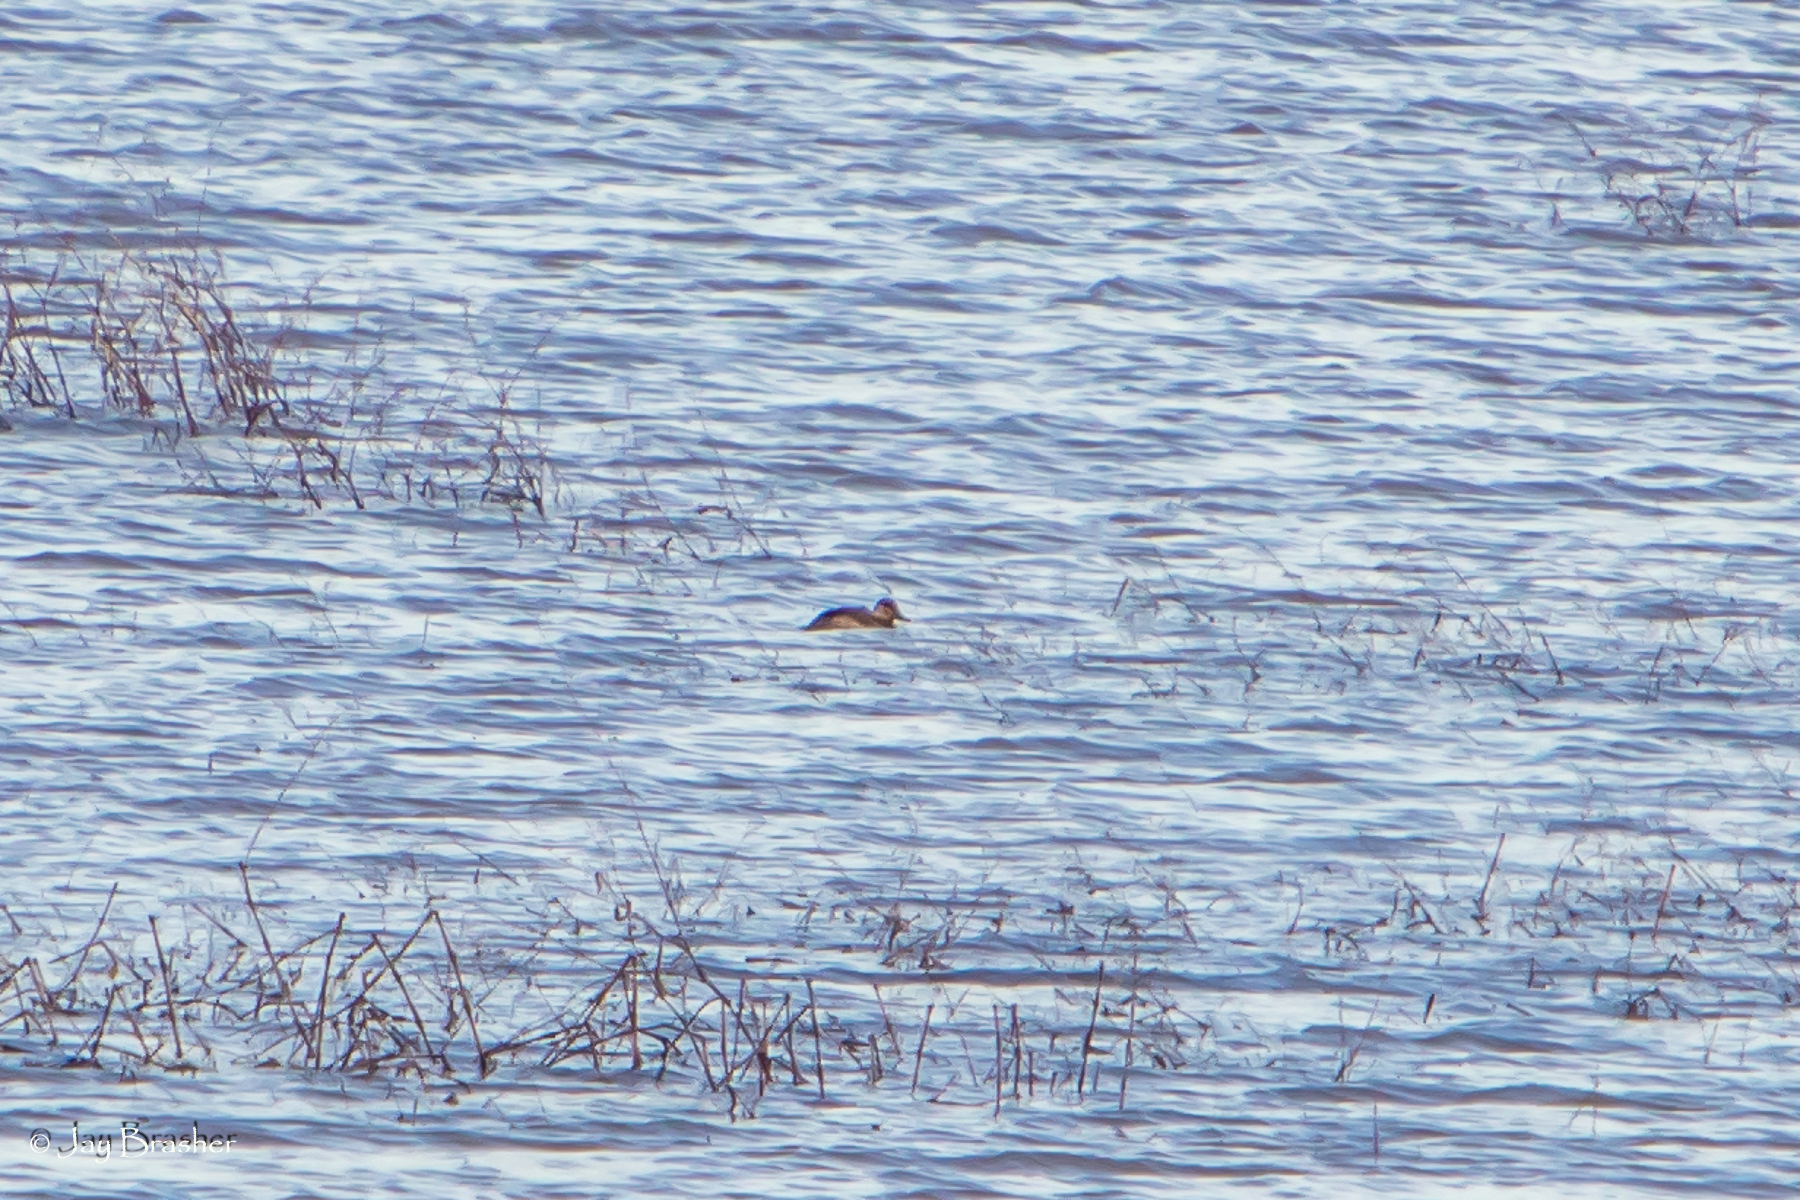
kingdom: Animalia
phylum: Chordata
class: Aves
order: Anseriformes
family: Anatidae
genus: Oxyura
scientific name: Oxyura jamaicensis
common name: Ruddy duck
